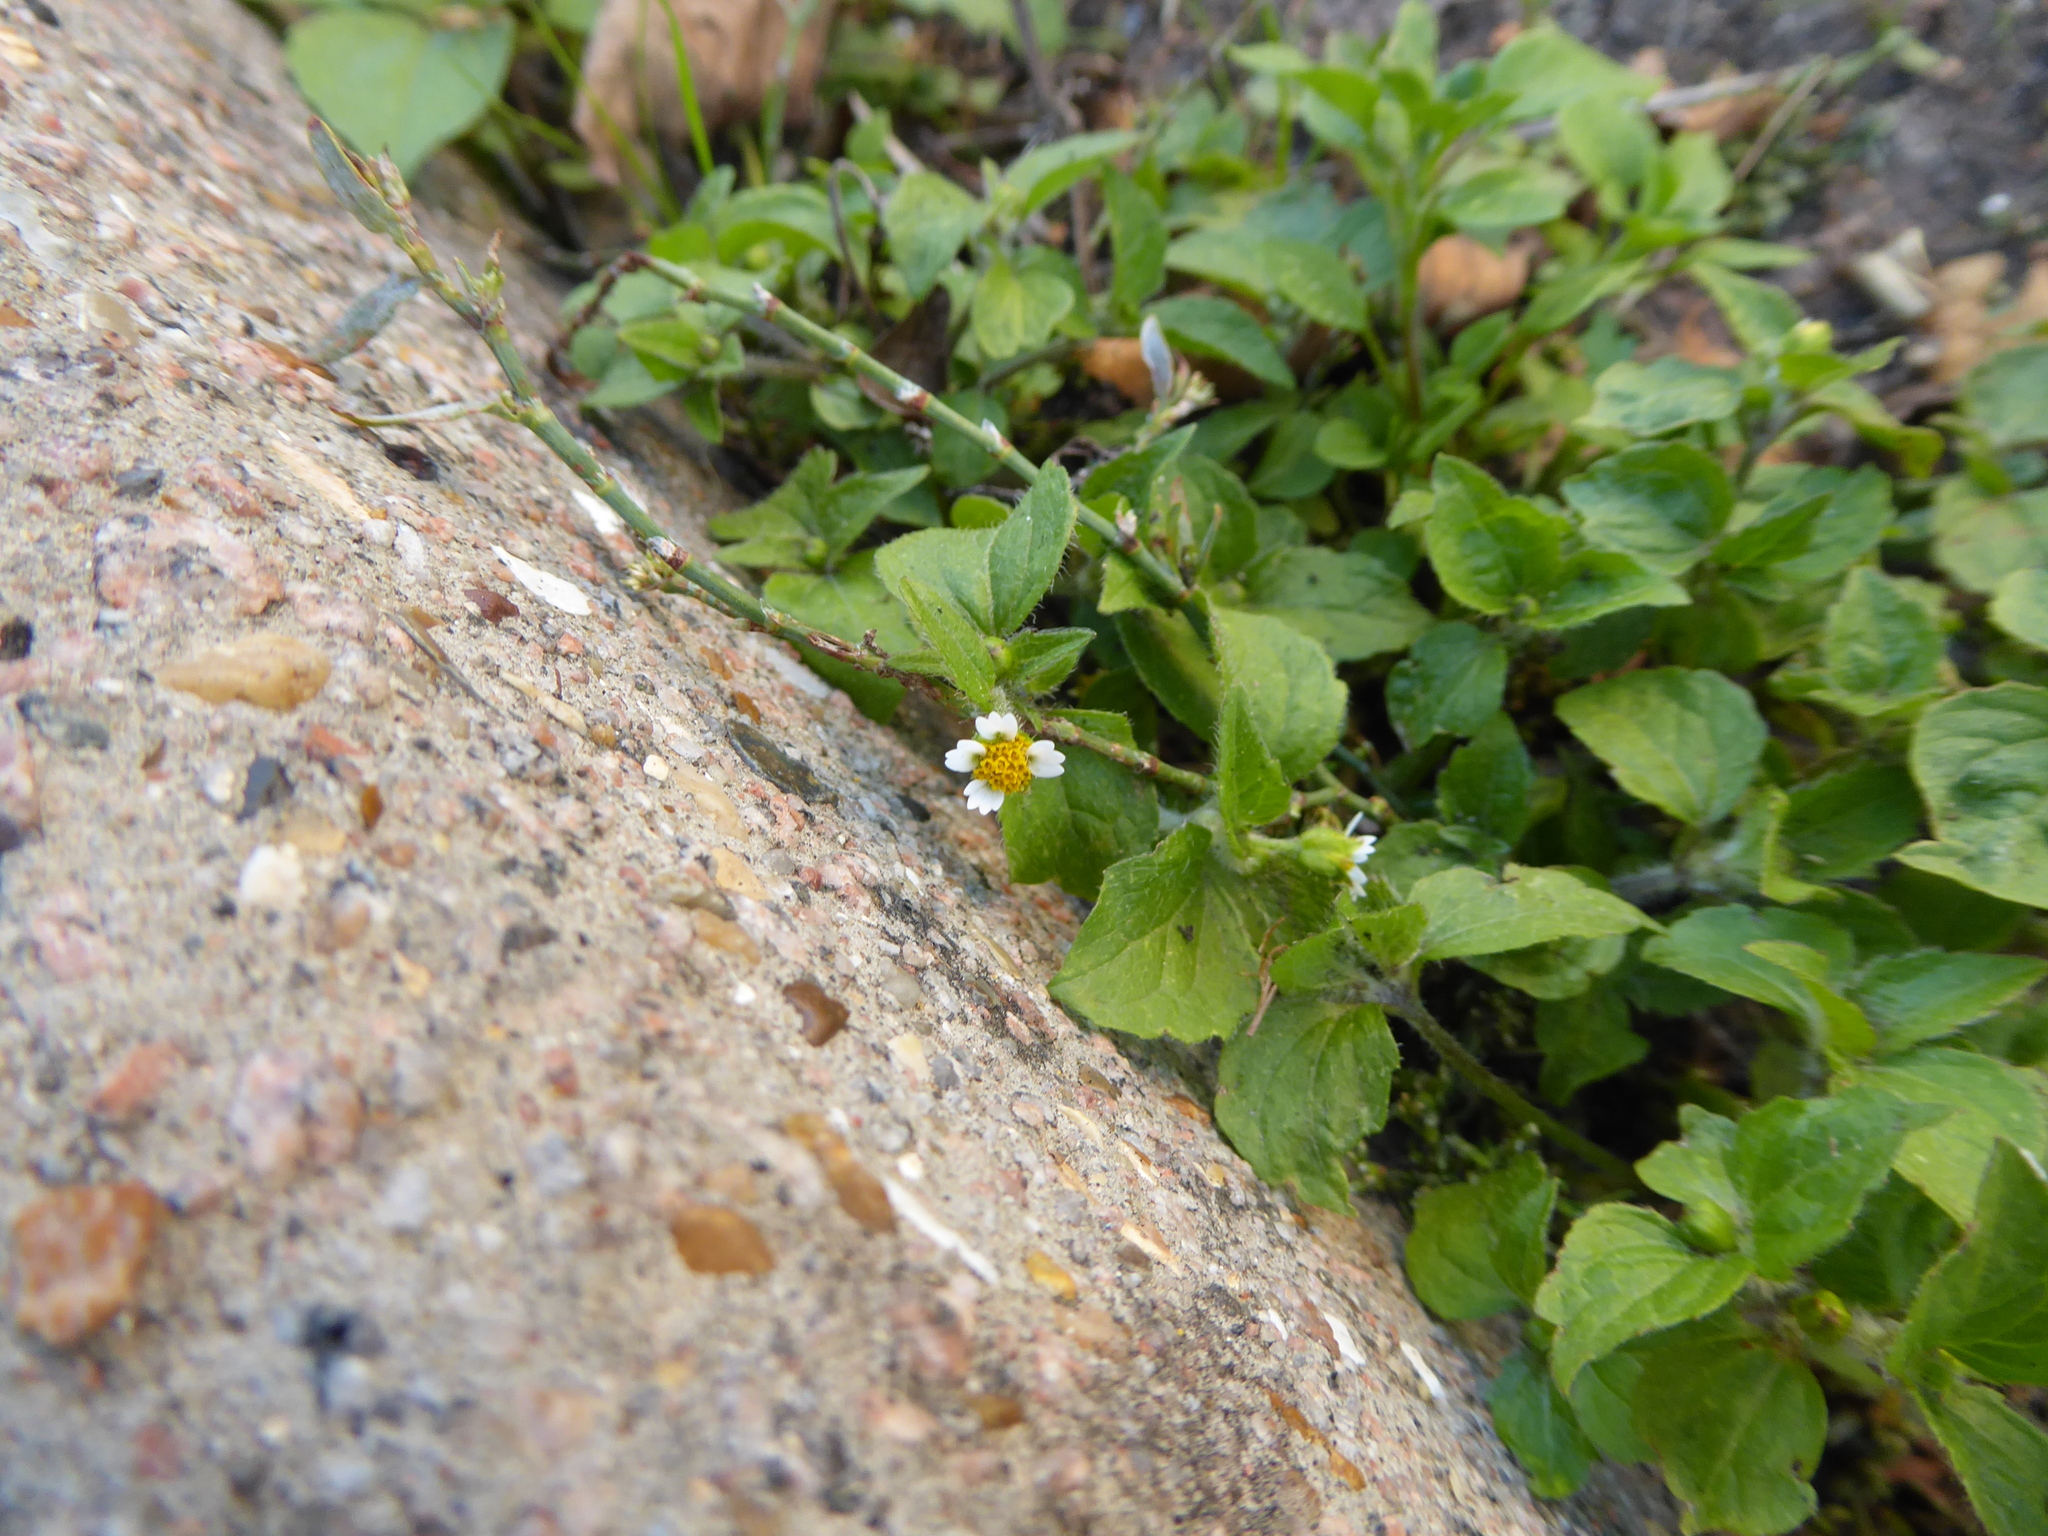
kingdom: Plantae
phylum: Tracheophyta
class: Magnoliopsida
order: Asterales
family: Asteraceae
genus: Galinsoga
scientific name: Galinsoga quadriradiata
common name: Shaggy soldier
